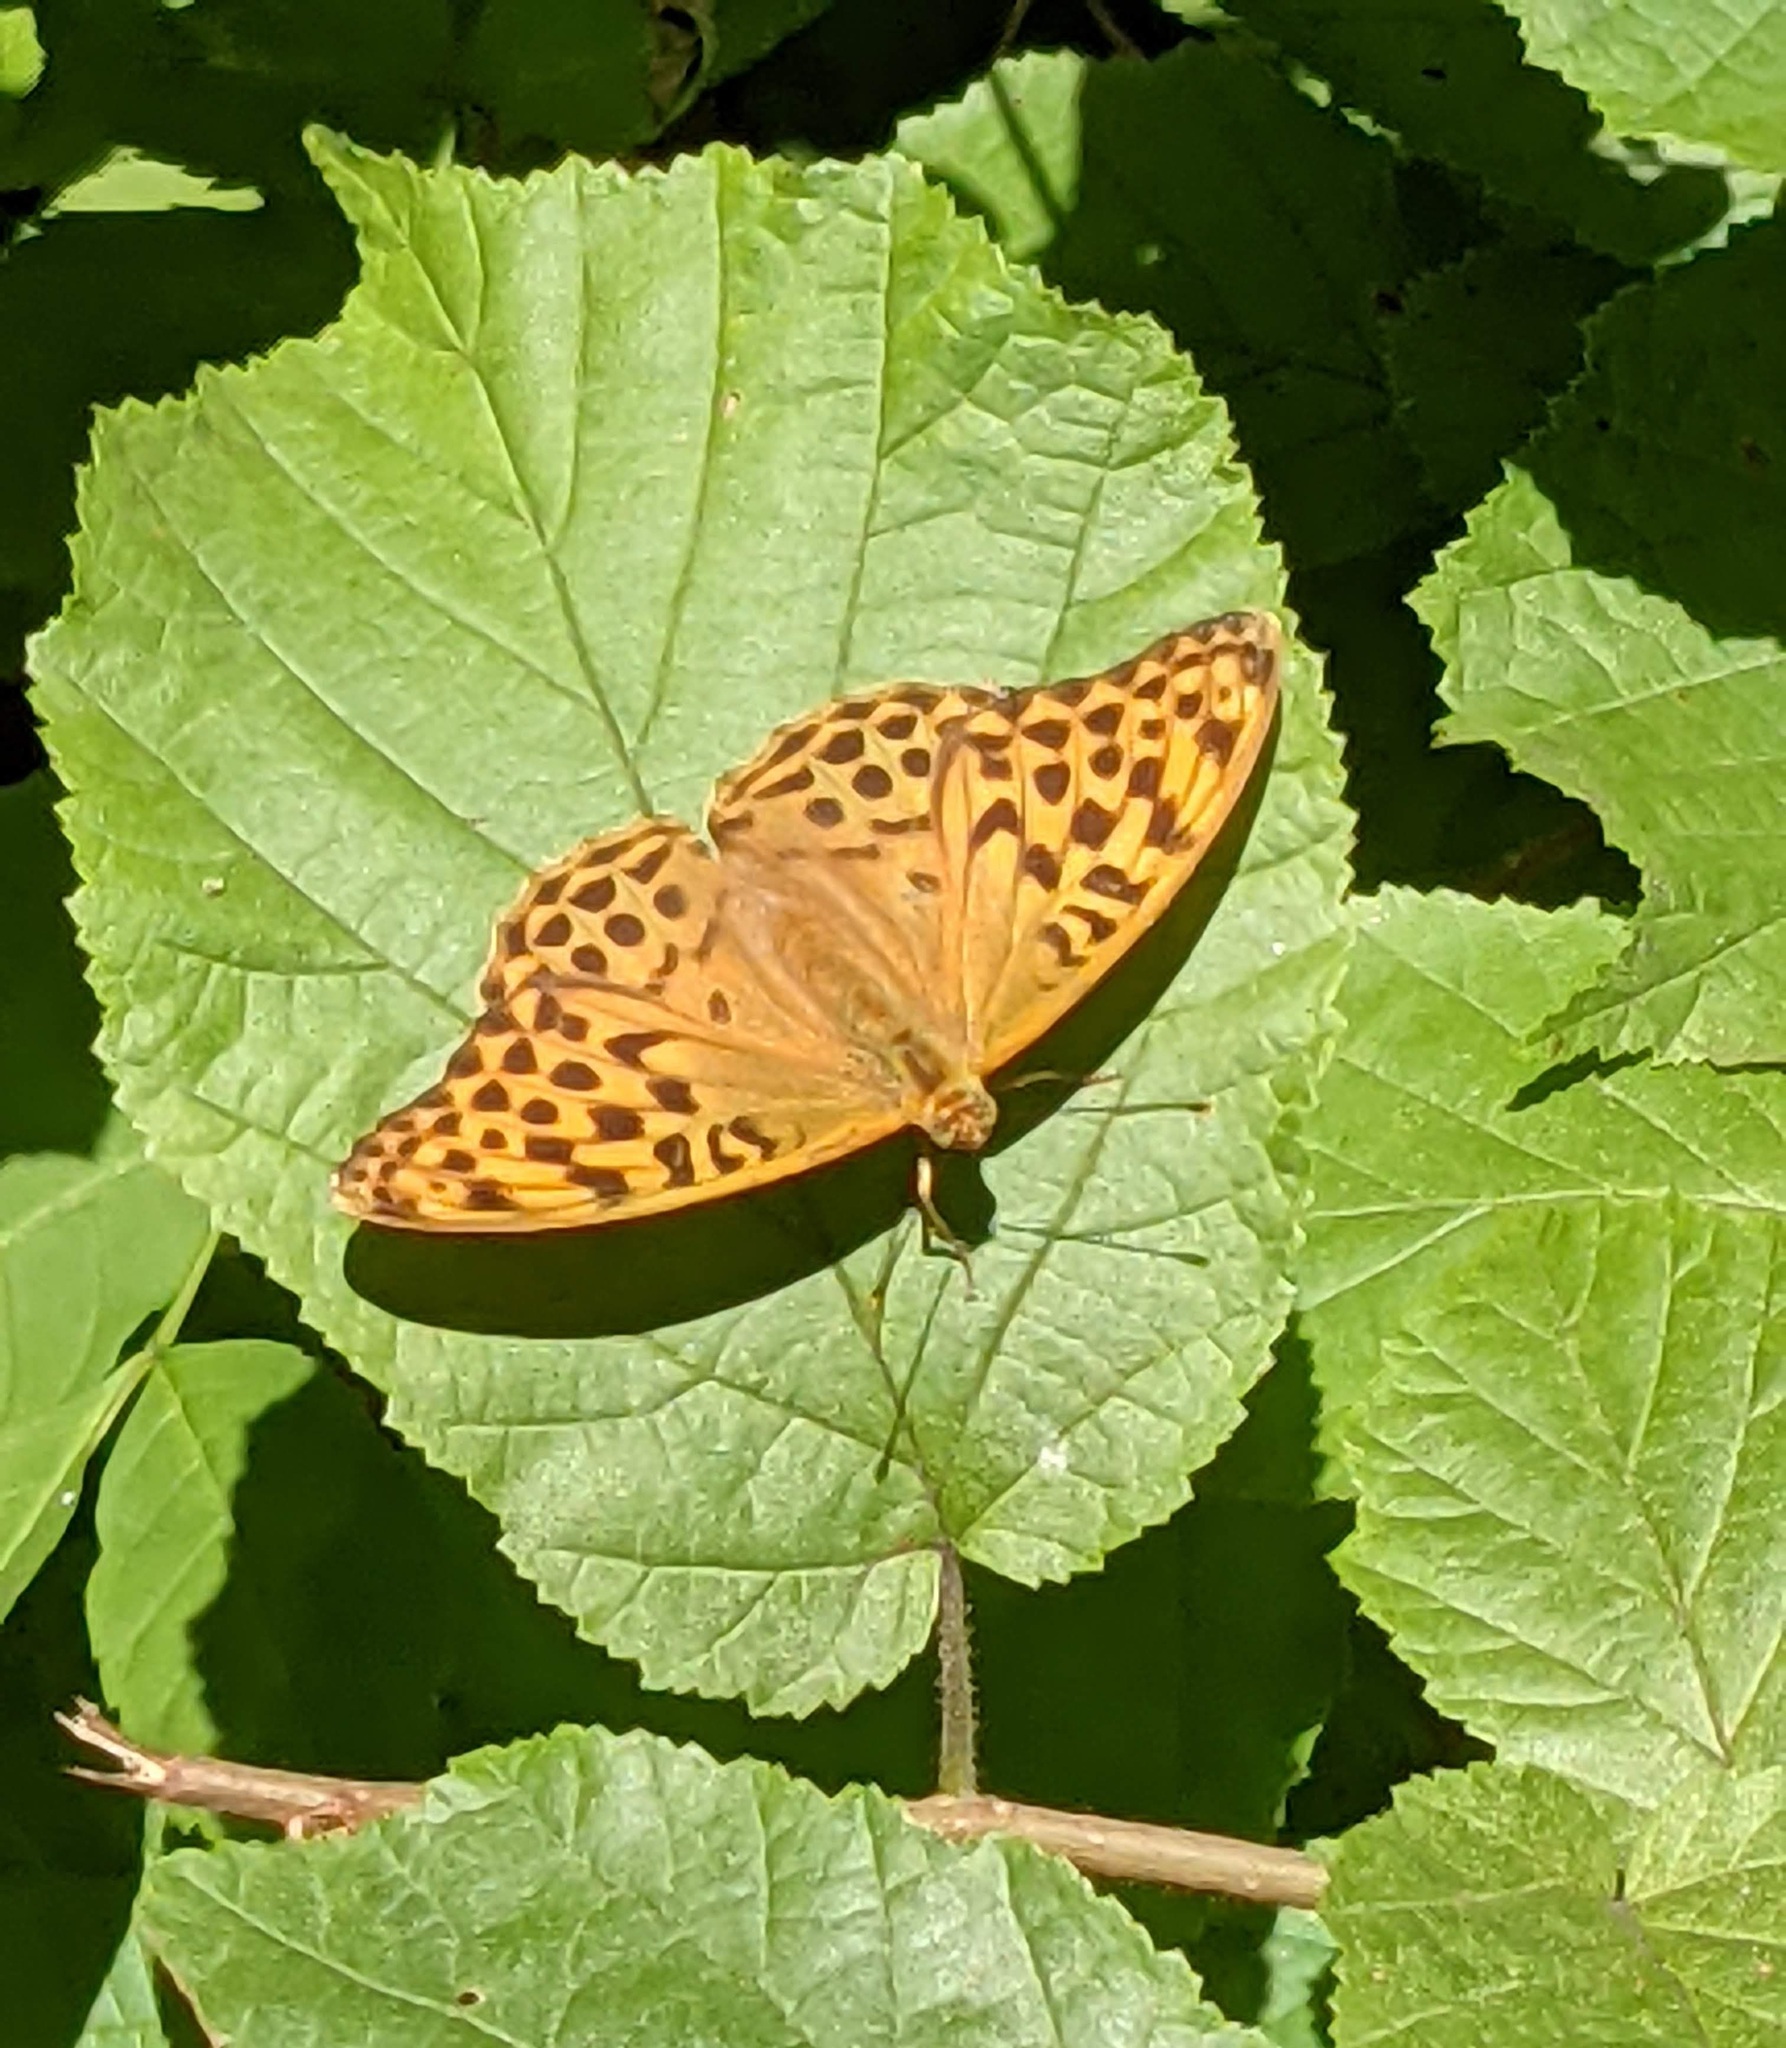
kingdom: Animalia
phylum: Arthropoda
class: Insecta
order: Lepidoptera
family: Nymphalidae
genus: Argynnis
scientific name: Argynnis paphia
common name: Silver-washed fritillary
